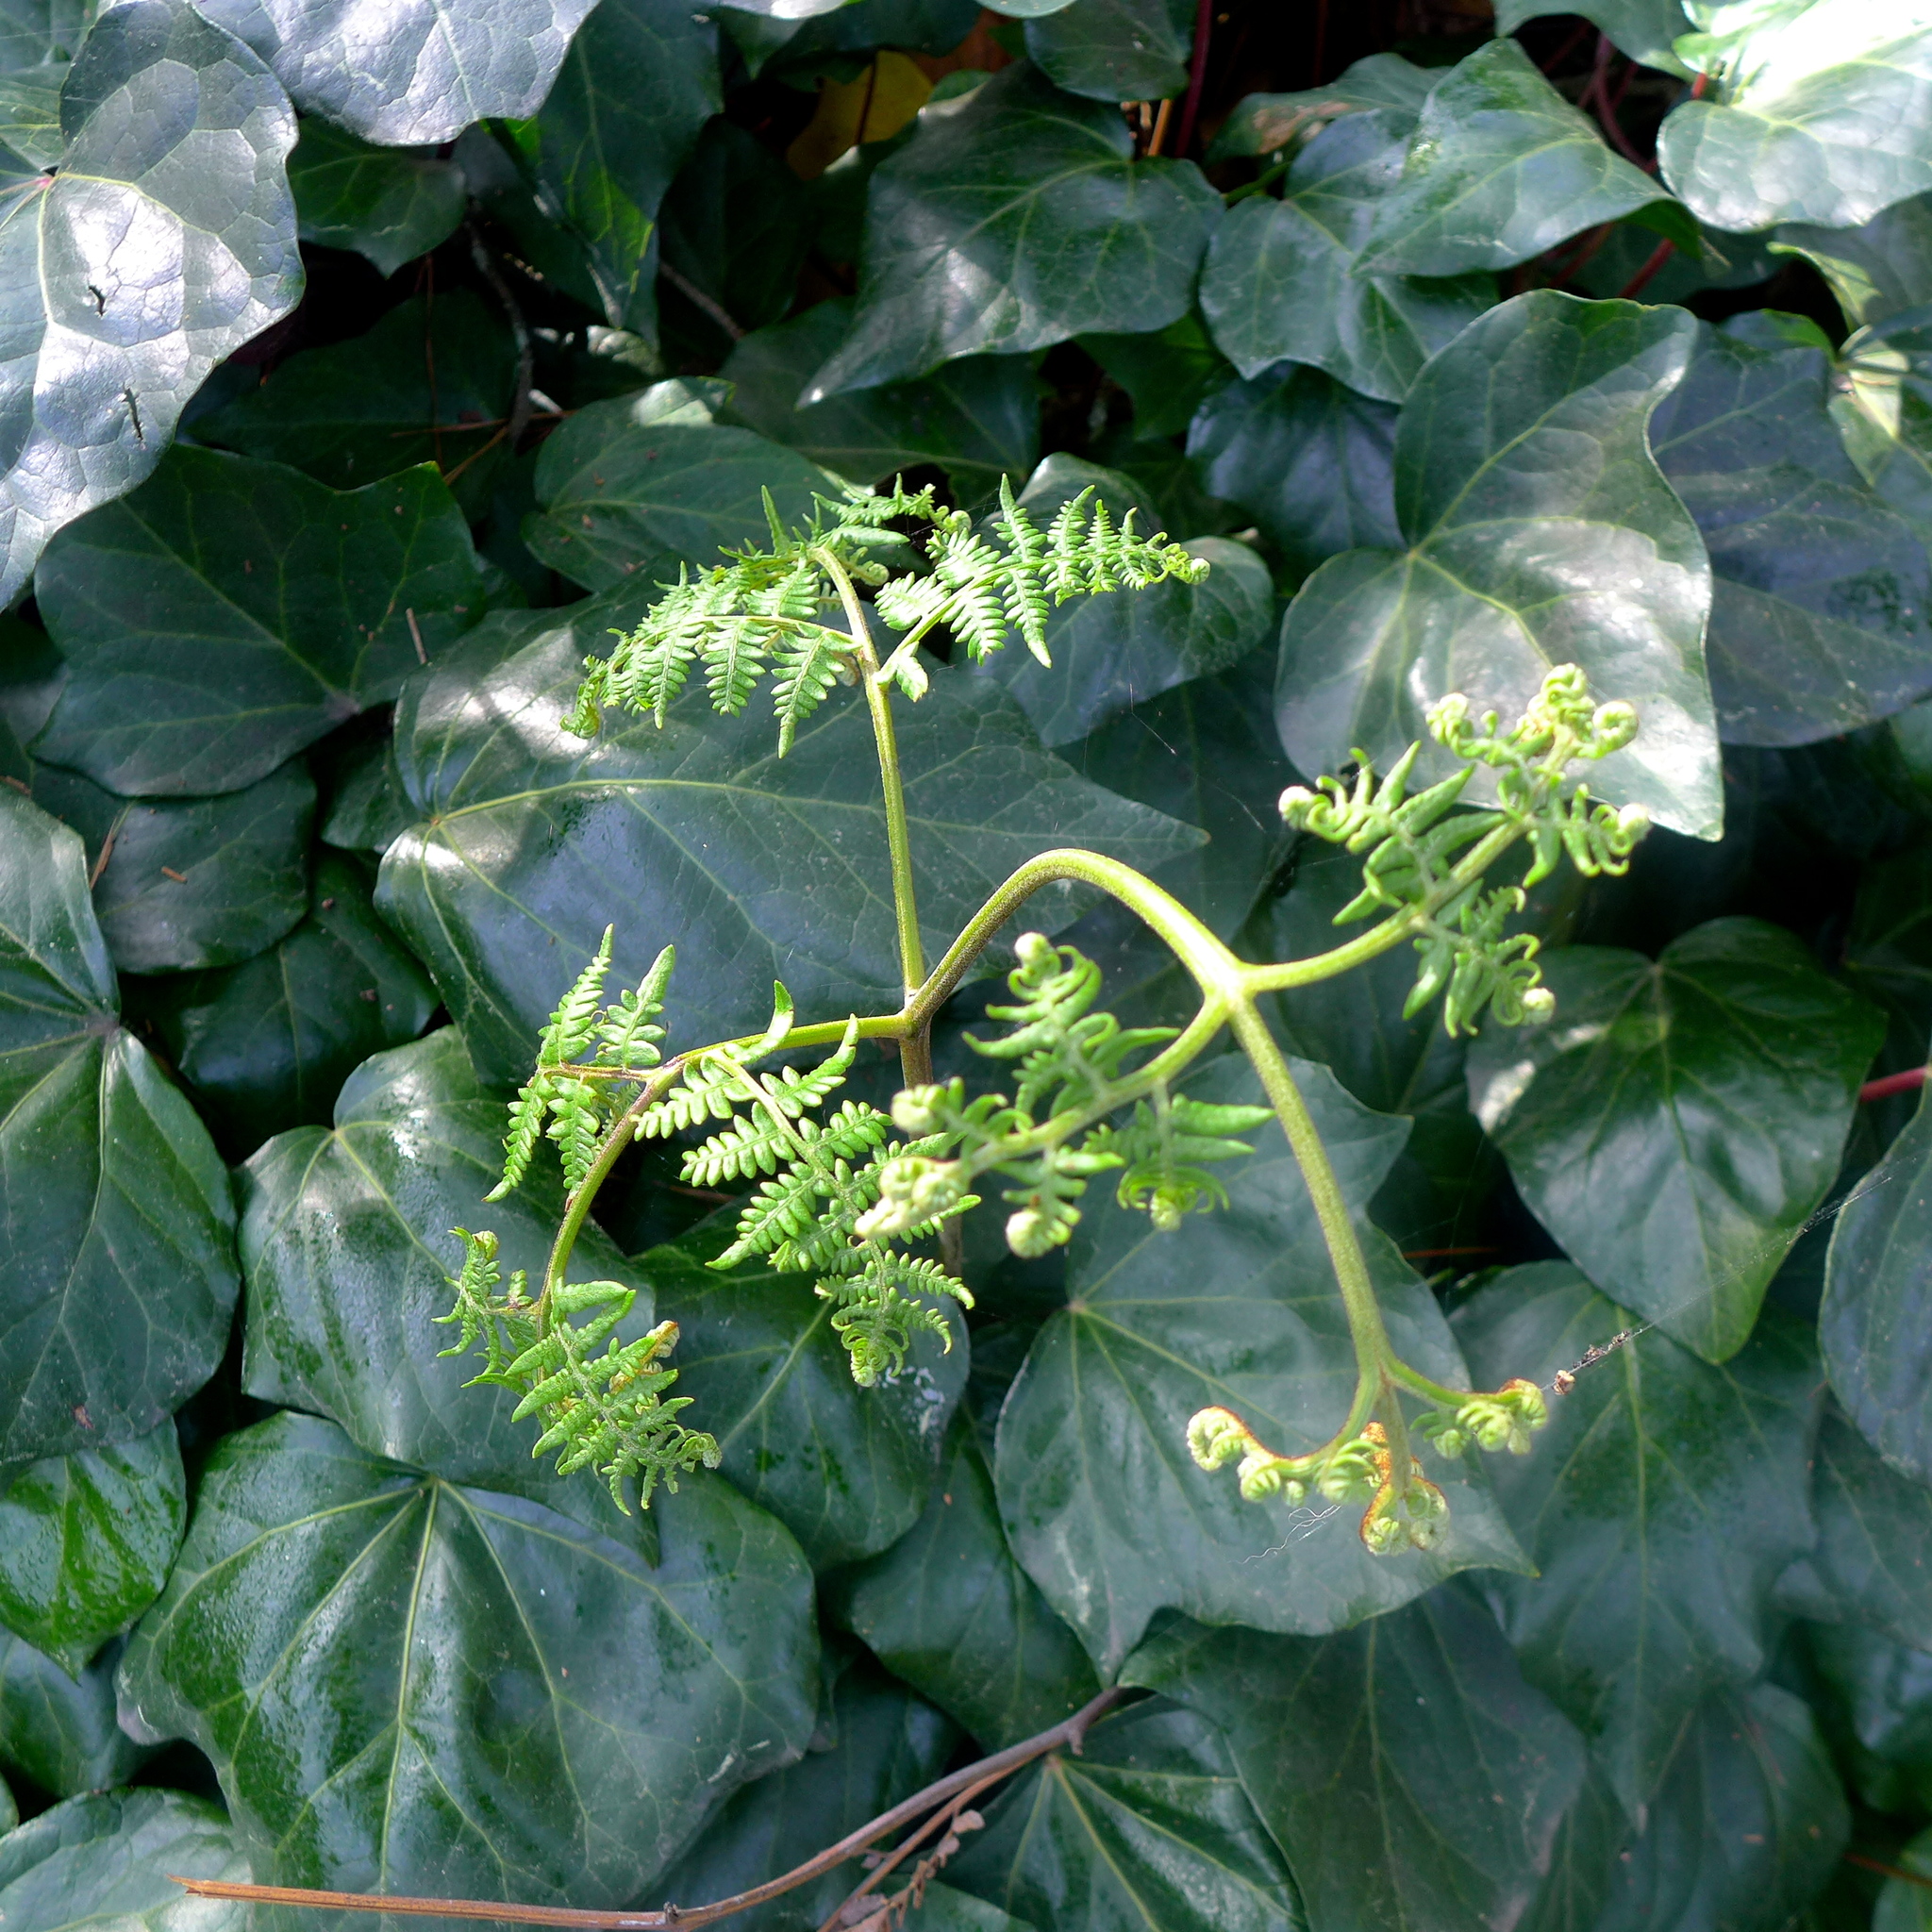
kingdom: Plantae
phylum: Tracheophyta
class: Polypodiopsida
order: Polypodiales
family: Dennstaedtiaceae
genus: Pteridium
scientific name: Pteridium aquilinum
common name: Bracken
